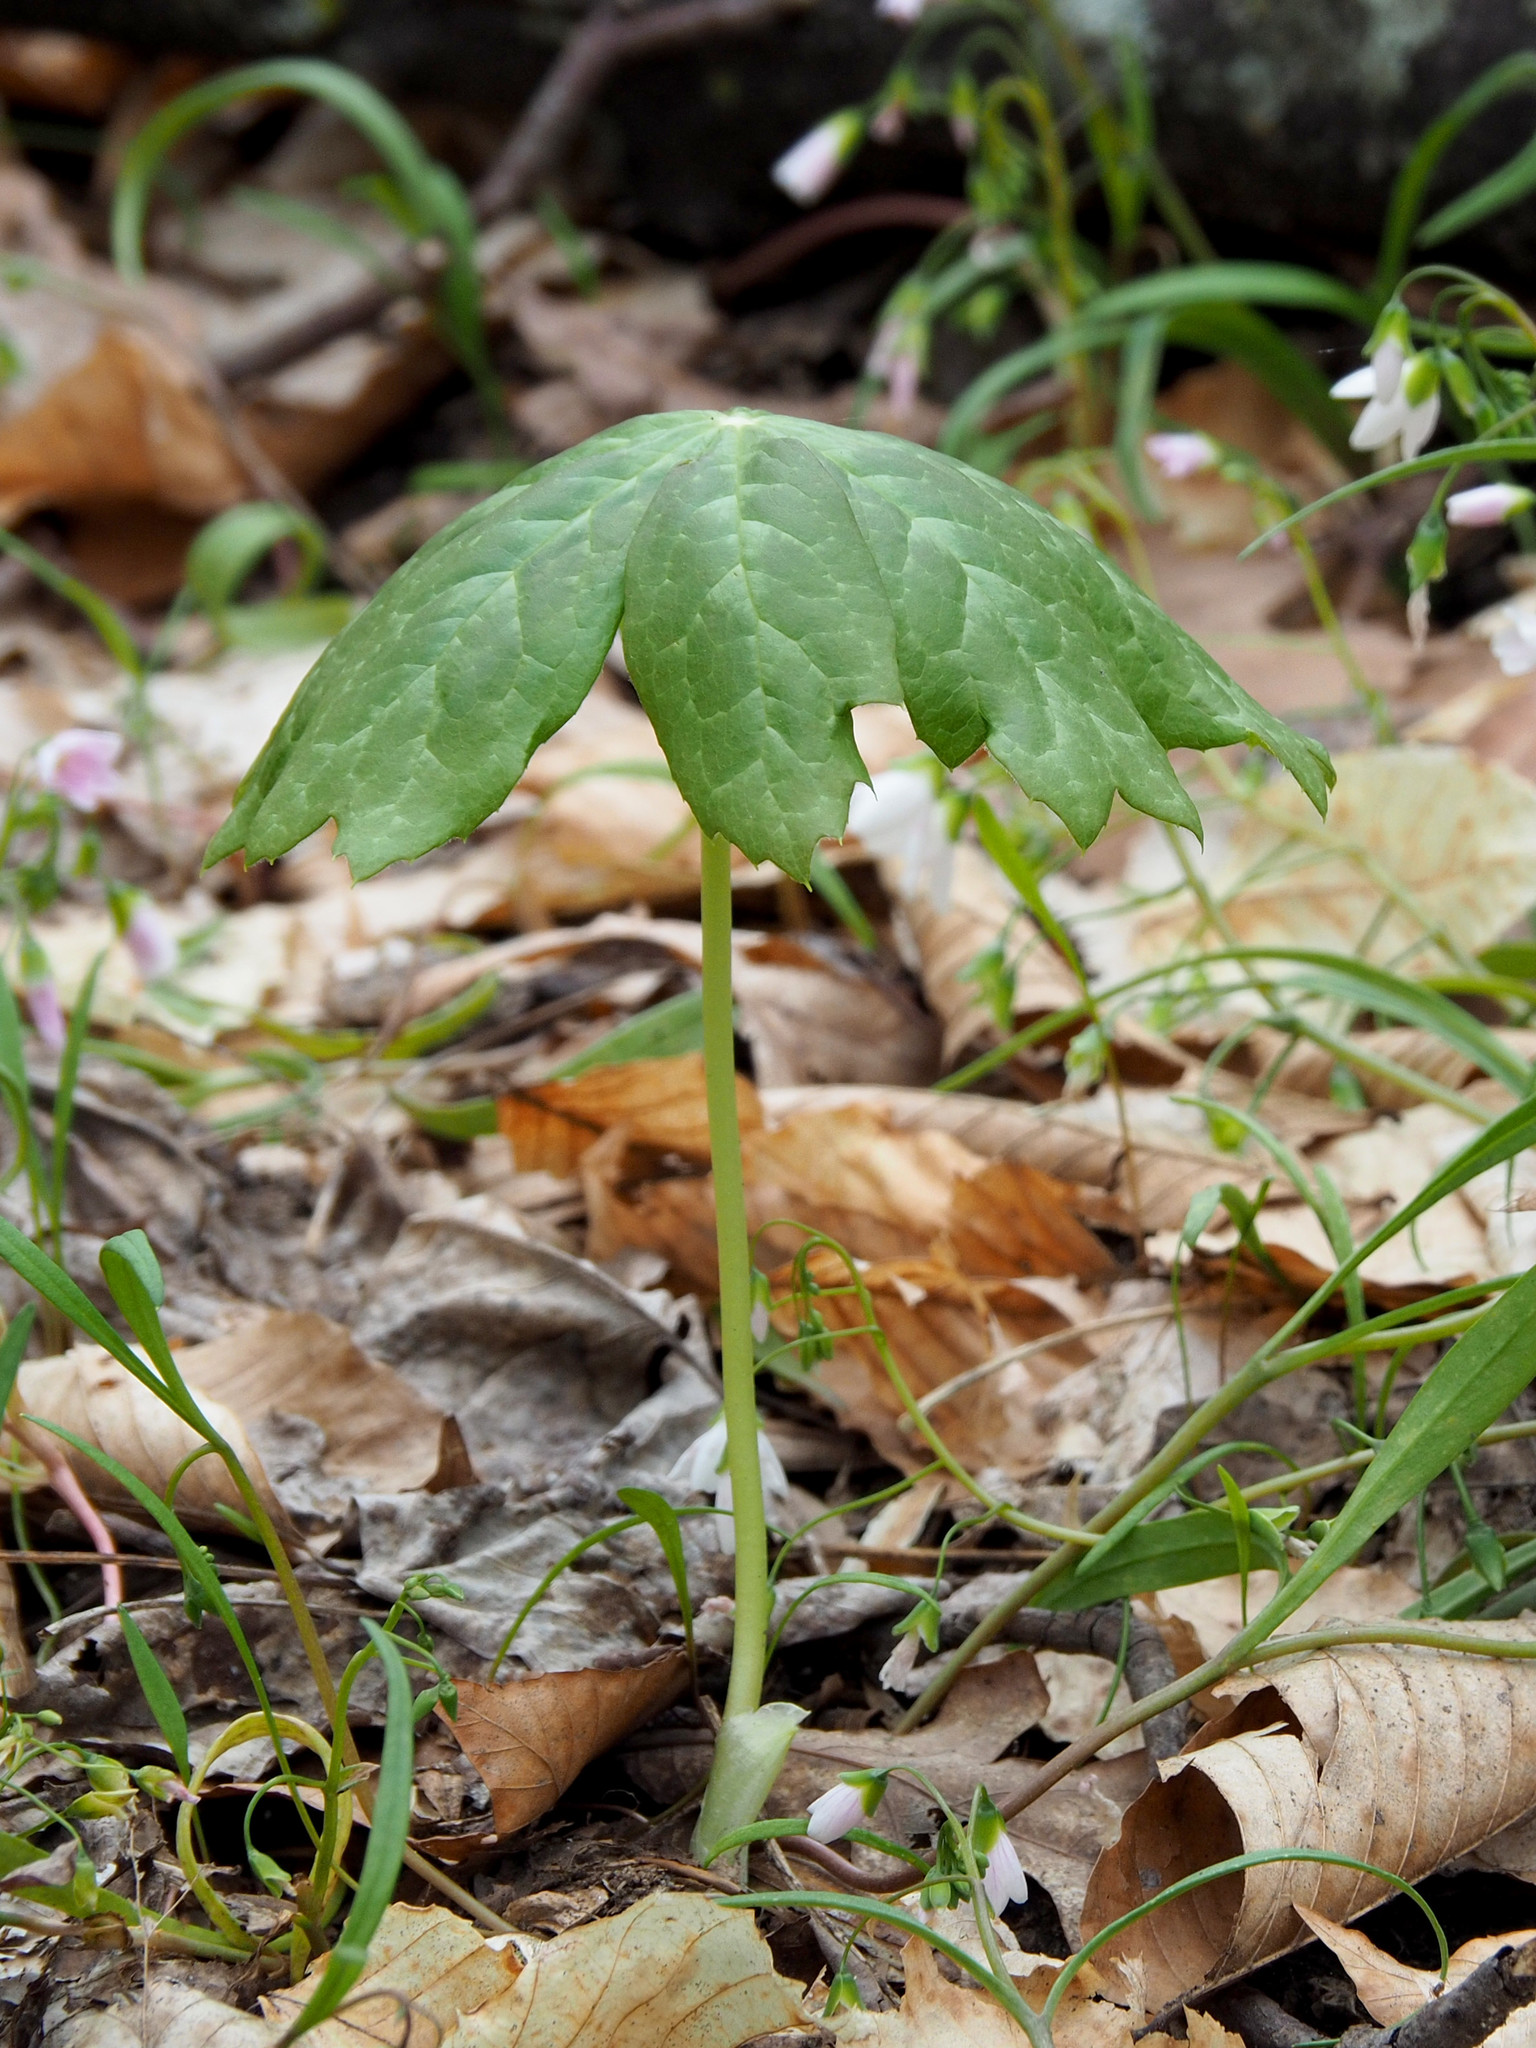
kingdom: Plantae
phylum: Tracheophyta
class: Magnoliopsida
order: Ranunculales
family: Berberidaceae
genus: Podophyllum
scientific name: Podophyllum peltatum
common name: Wild mandrake
